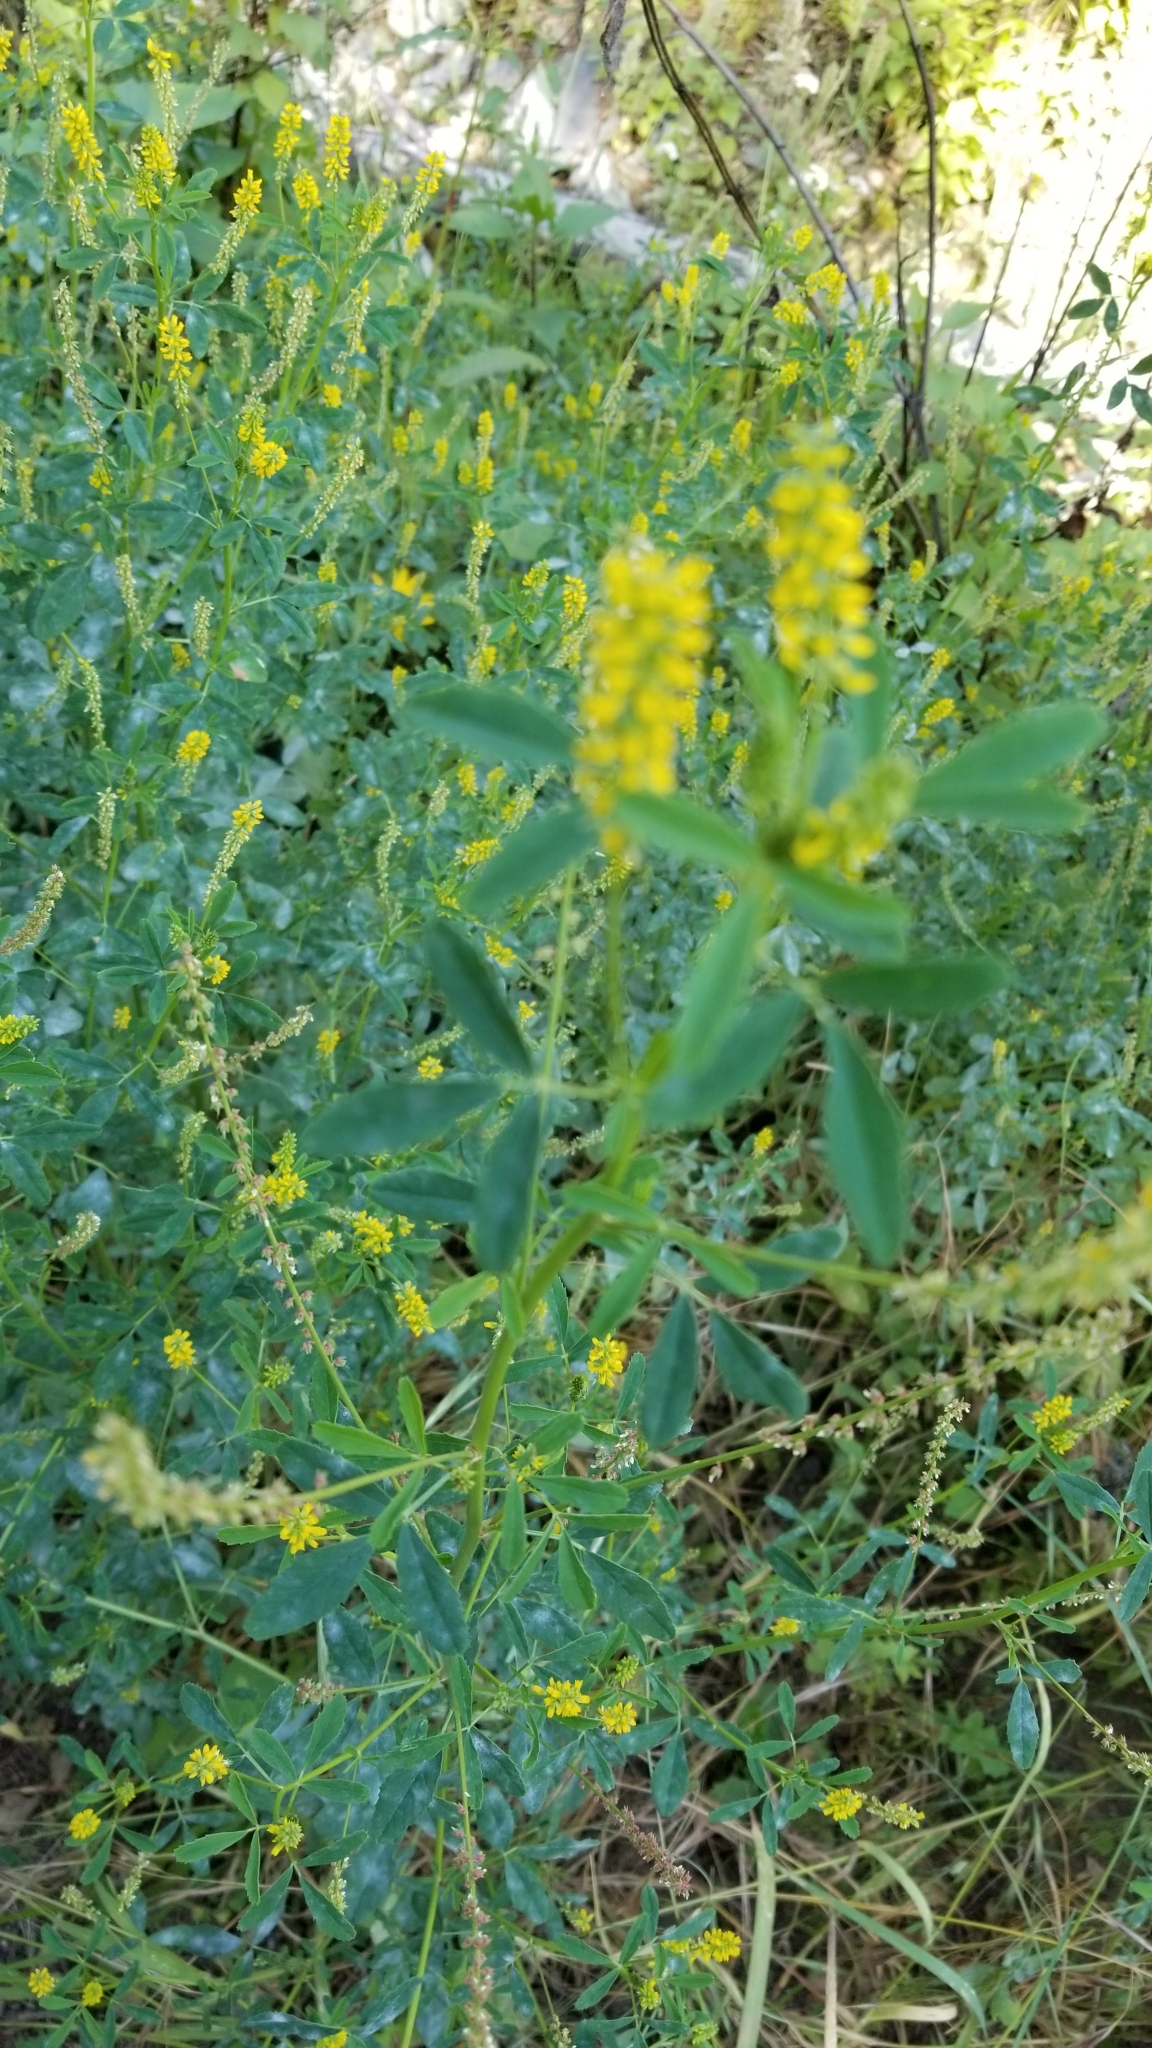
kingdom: Plantae
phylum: Tracheophyta
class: Magnoliopsida
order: Fabales
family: Fabaceae
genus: Melilotus
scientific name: Melilotus indicus
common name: Small melilot
